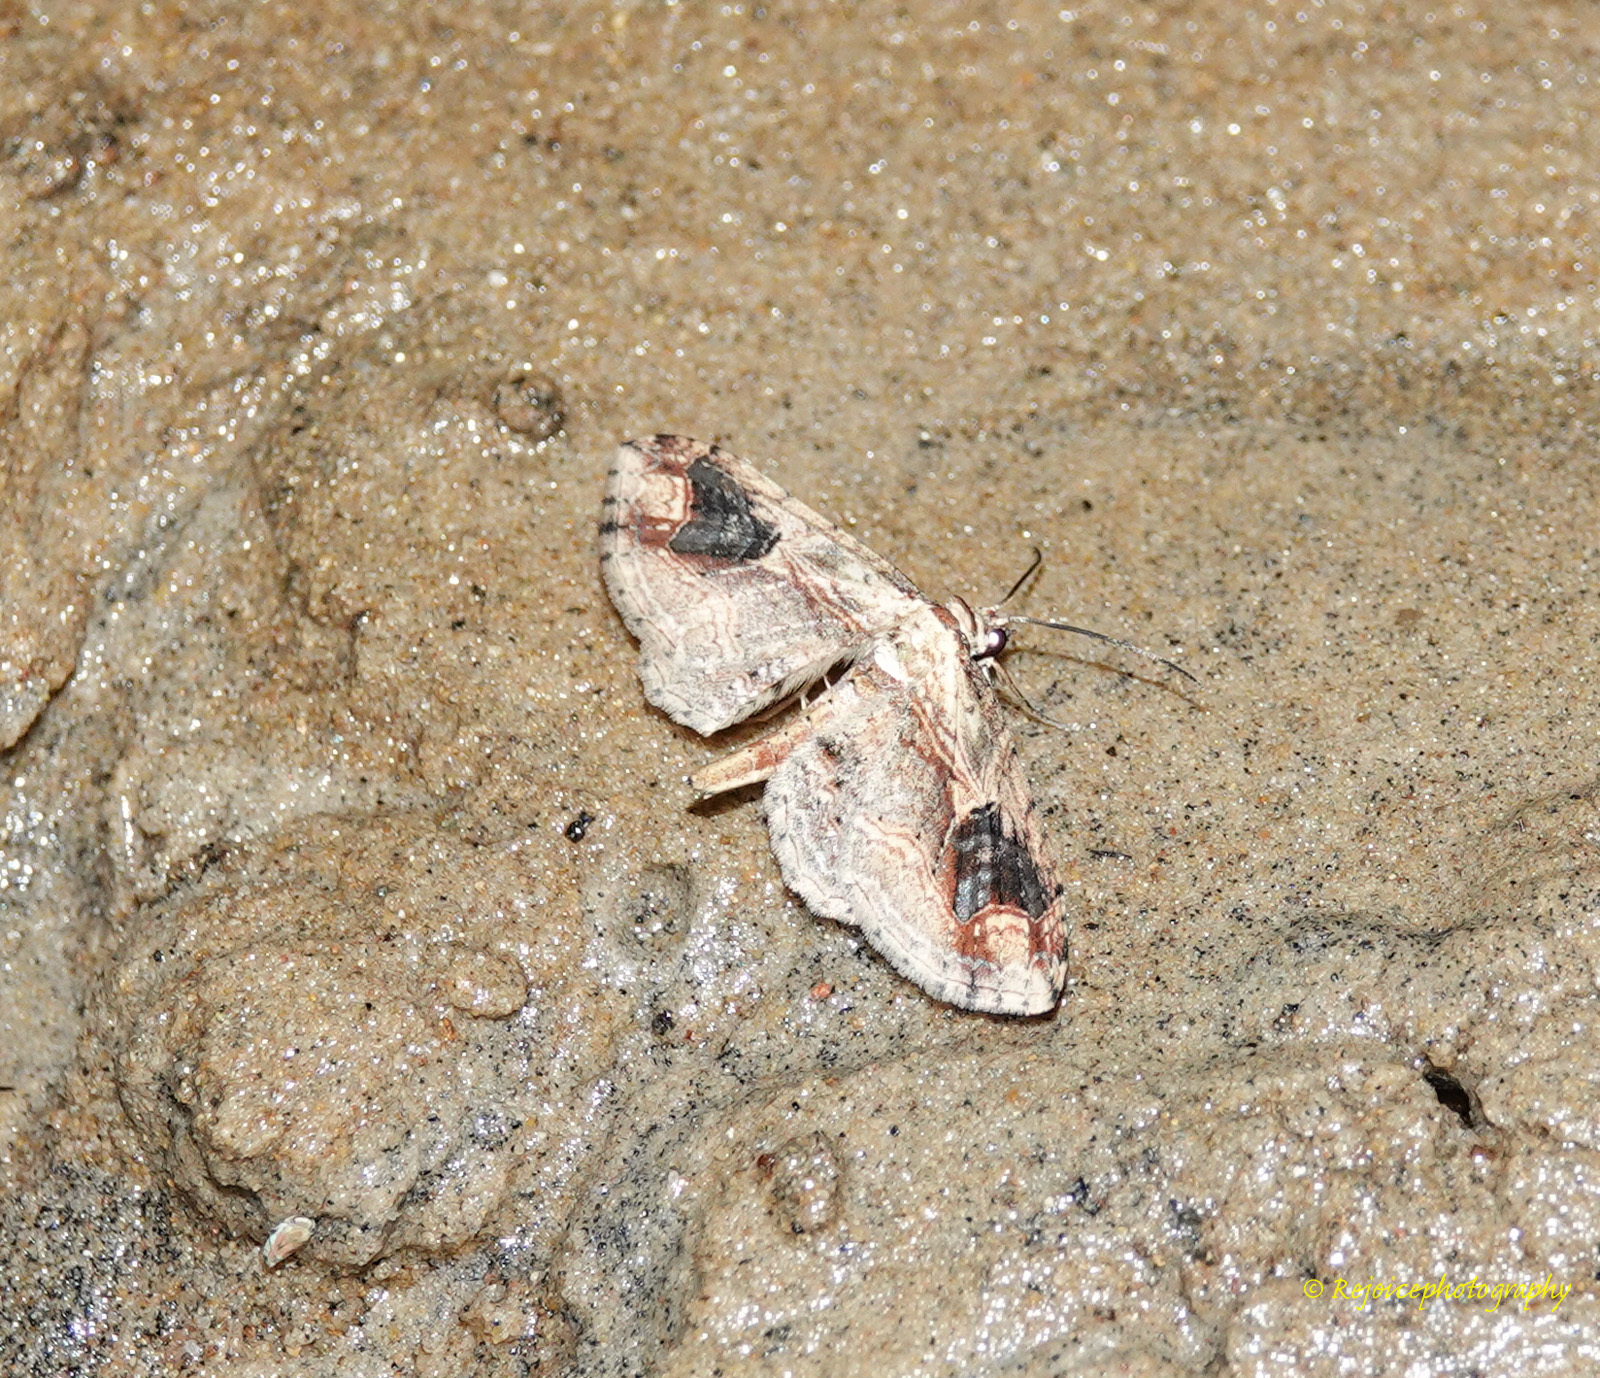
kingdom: Animalia
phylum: Arthropoda
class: Insecta
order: Lepidoptera
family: Geometridae
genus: Ziridava
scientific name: Ziridava khasiensis
